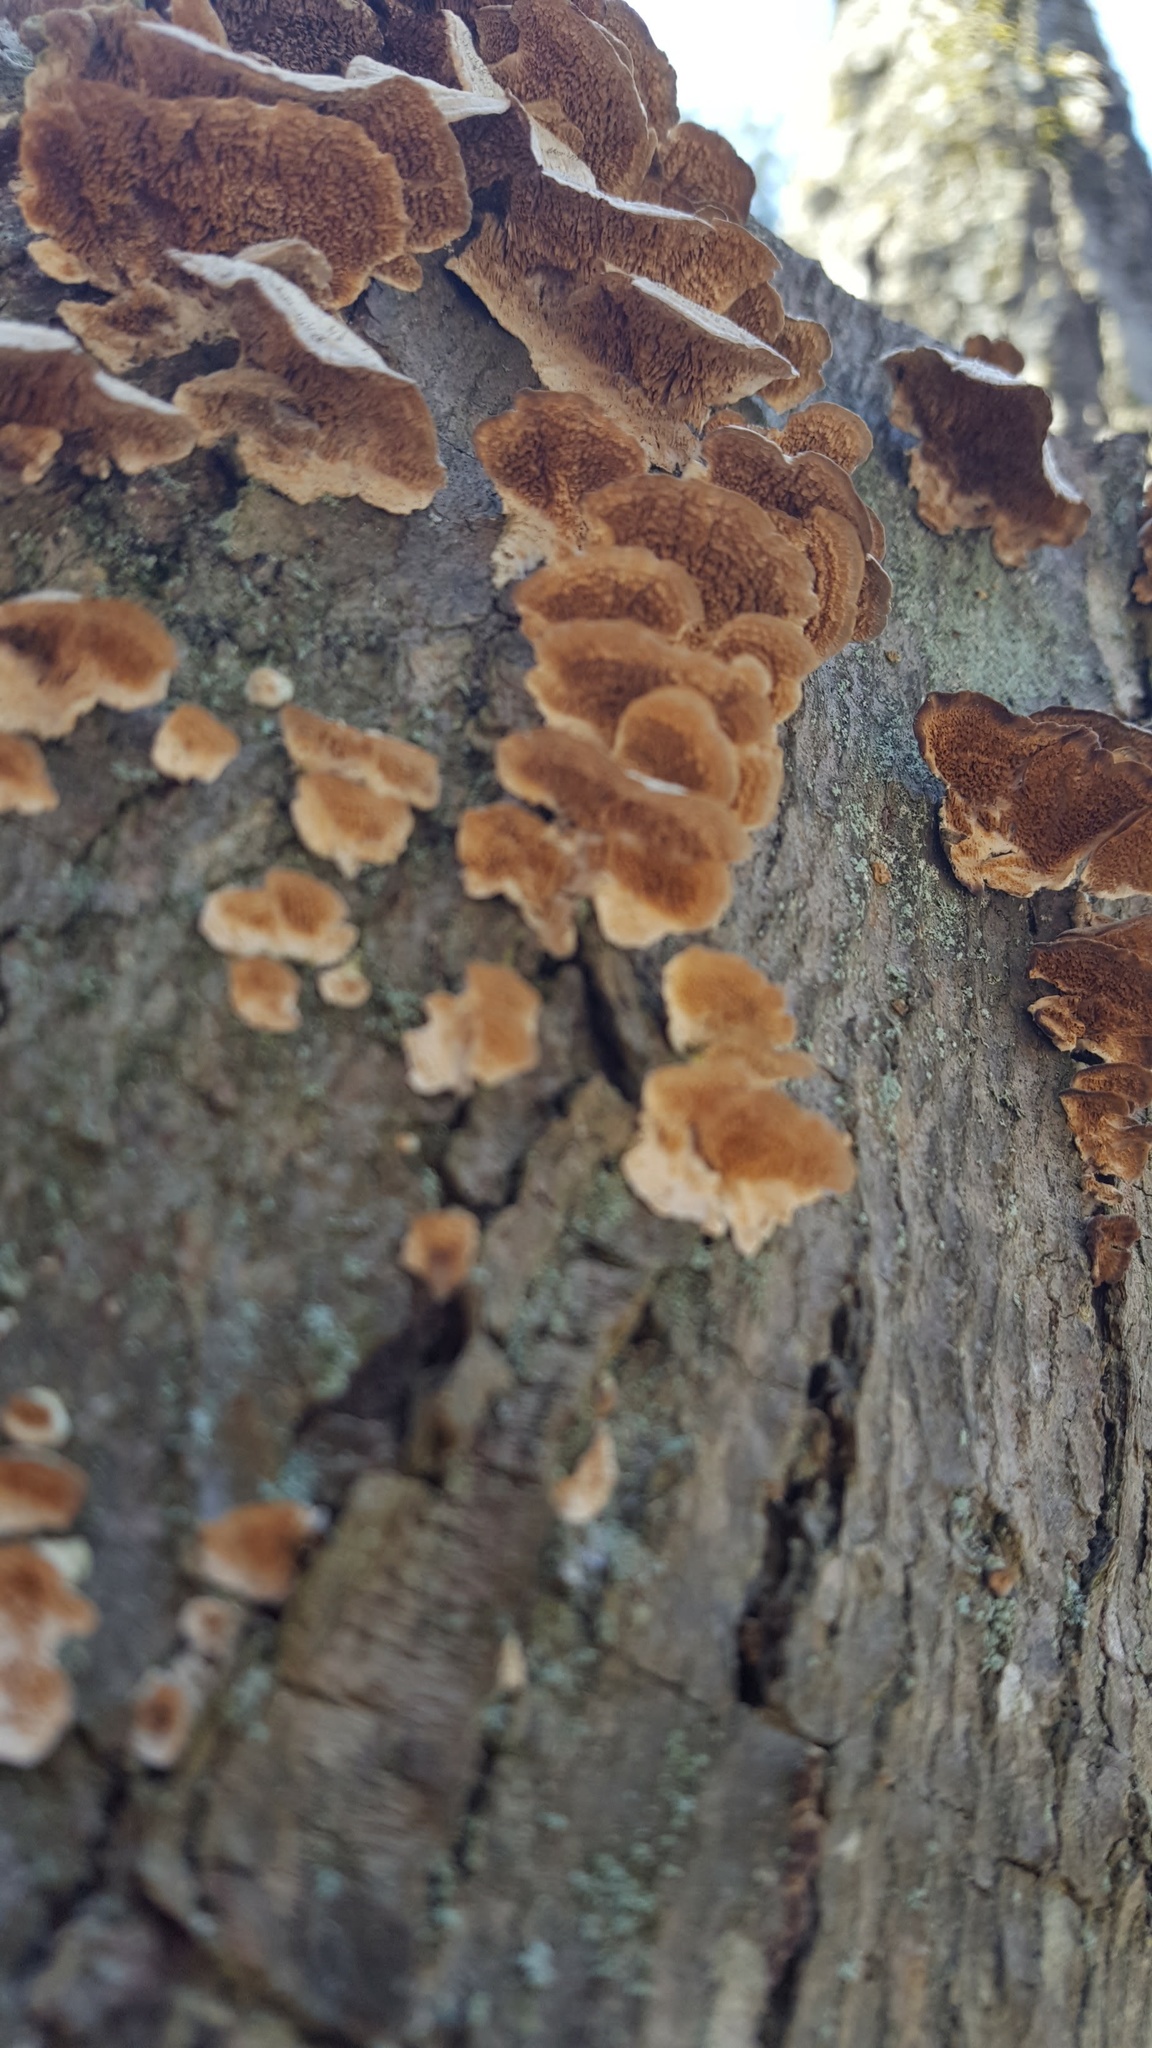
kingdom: Fungi
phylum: Basidiomycota
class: Agaricomycetes
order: Hymenochaetales
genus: Trichaptum
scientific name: Trichaptum biforme
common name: Violet-toothed polypore
